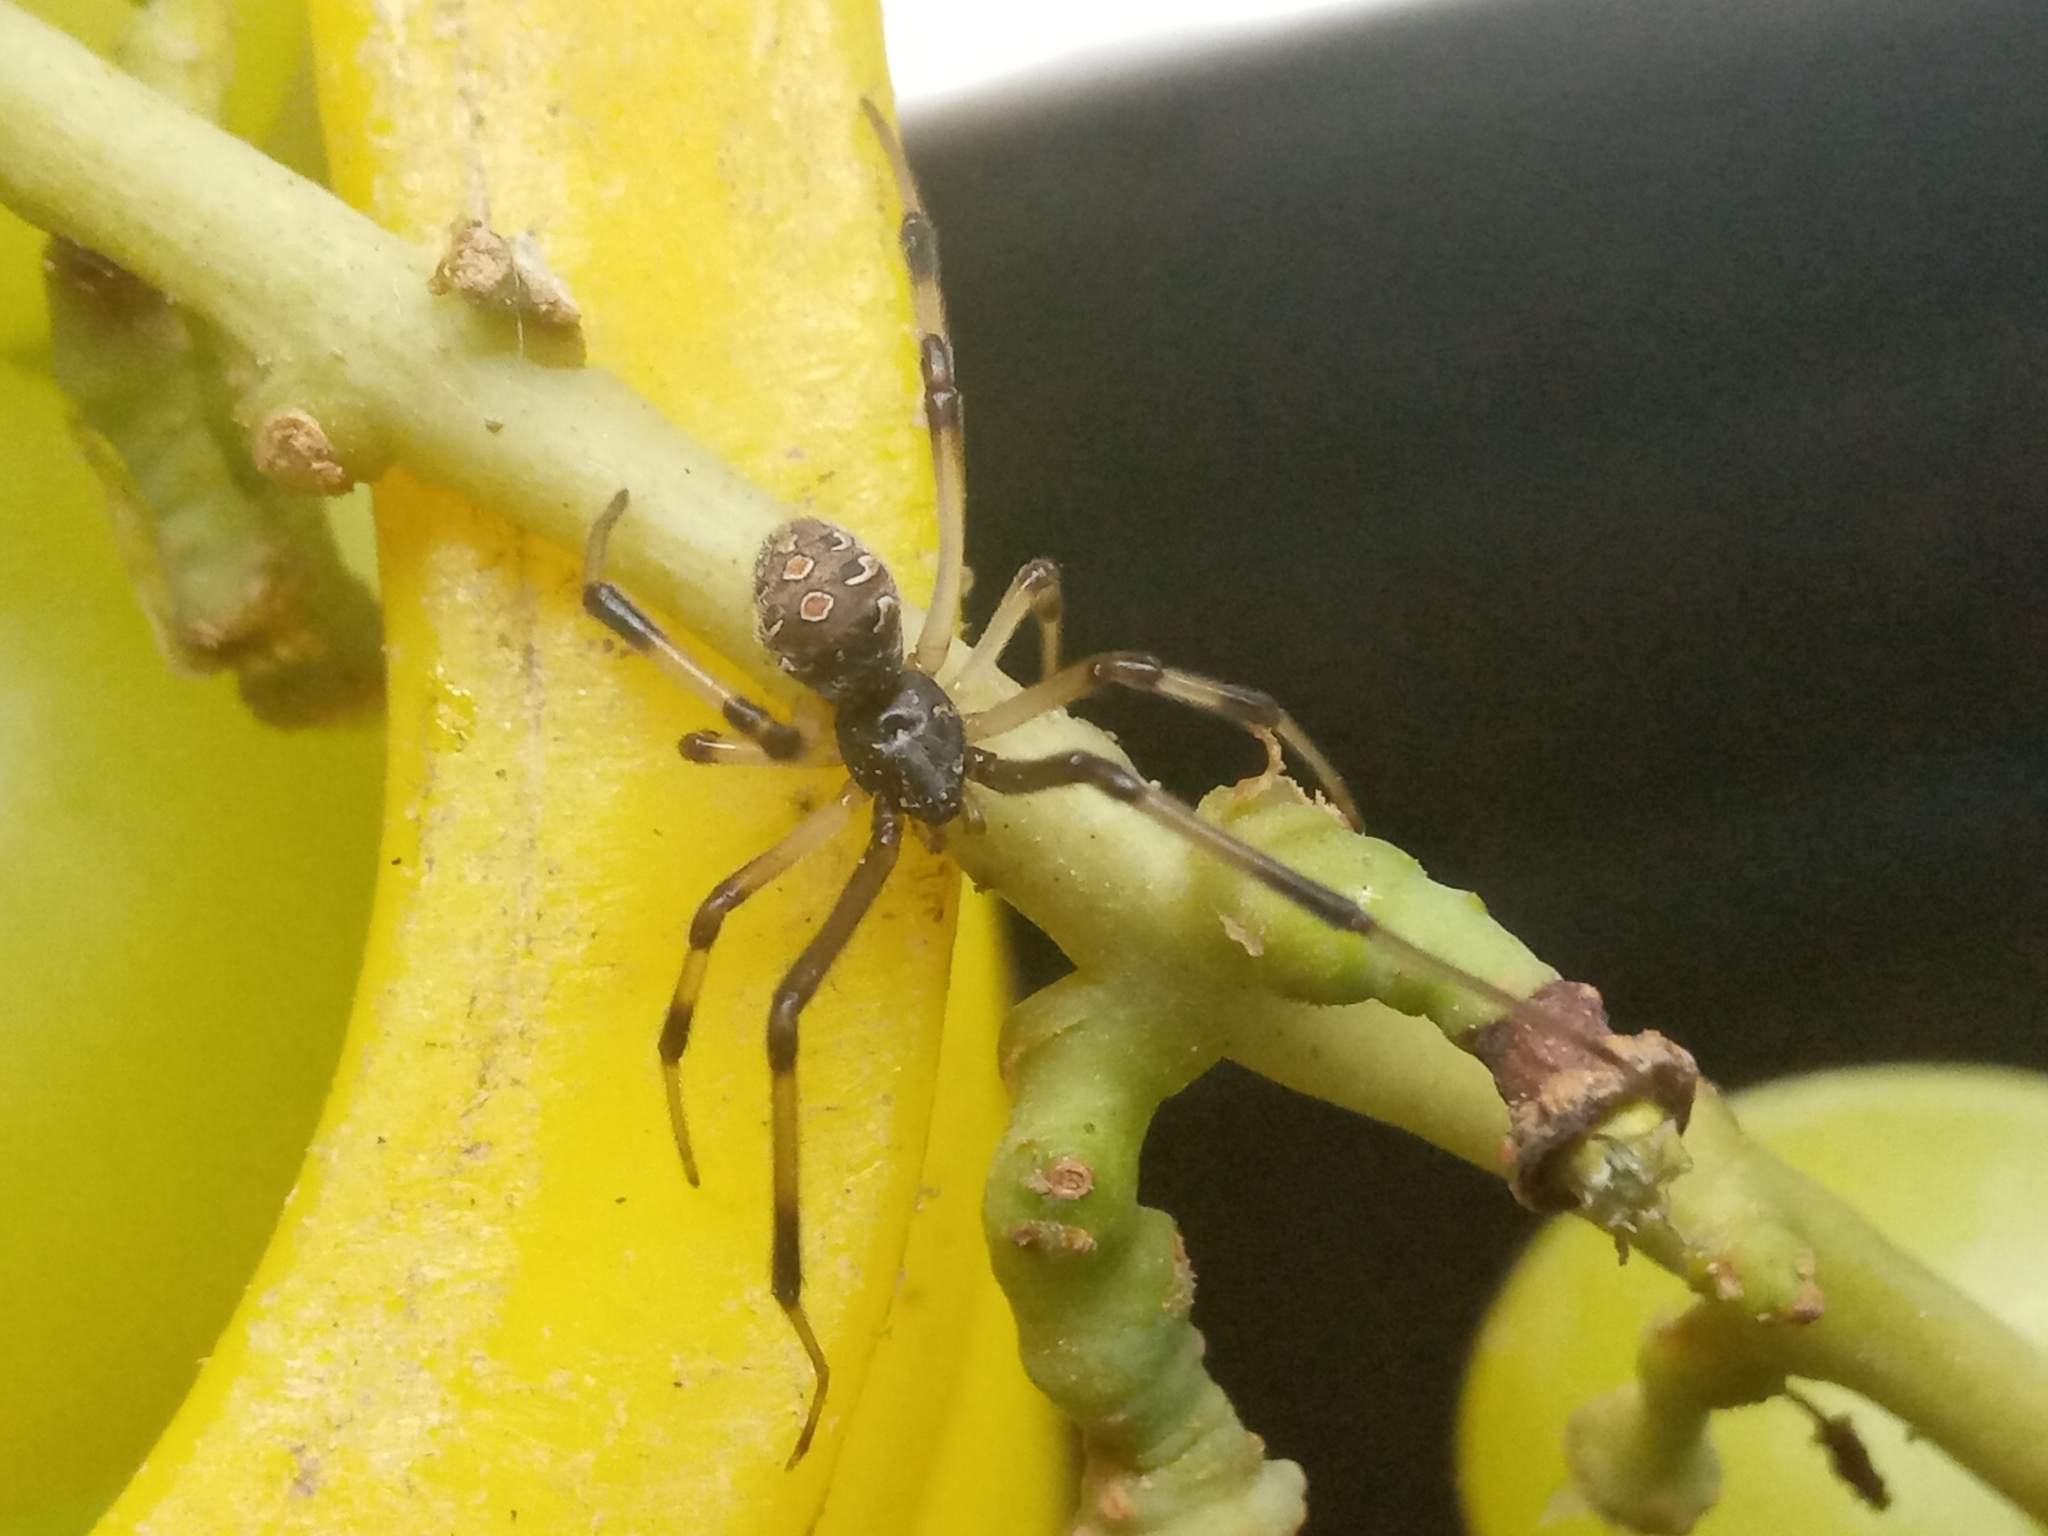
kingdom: Animalia
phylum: Arthropoda
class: Arachnida
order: Araneae
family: Theridiidae
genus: Latrodectus
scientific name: Latrodectus geometricus
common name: Brown widow spider
